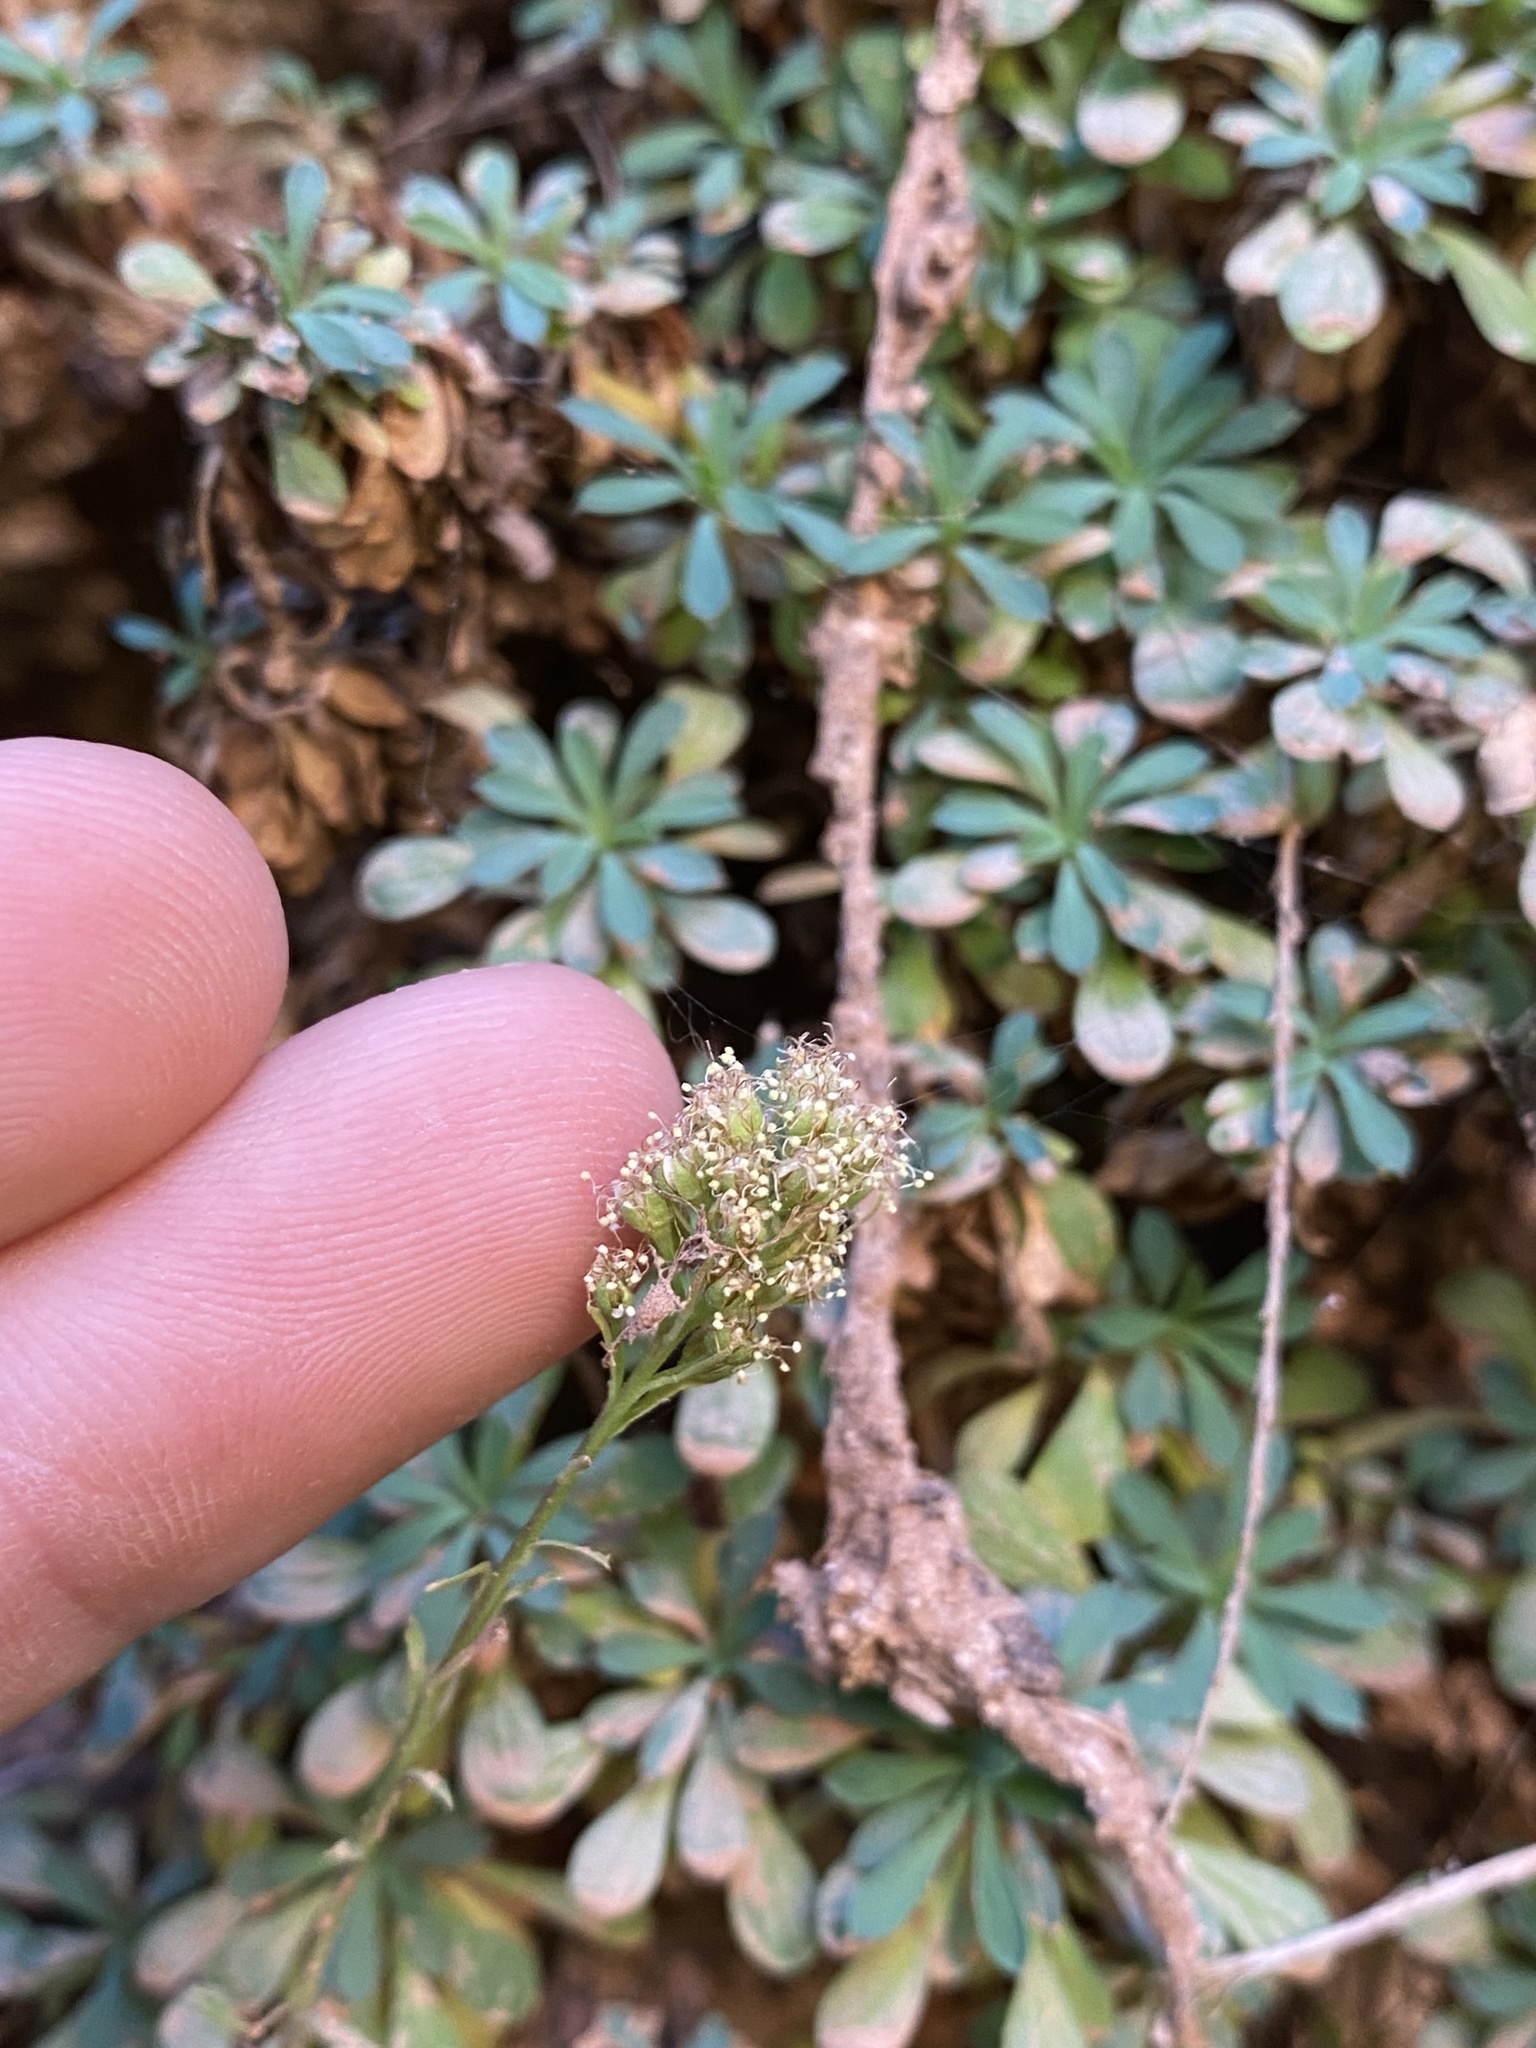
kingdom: Plantae
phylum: Tracheophyta
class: Magnoliopsida
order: Rosales
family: Rosaceae
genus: Petrophytum
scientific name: Petrophytum caespitosum
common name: Mat rockspirea
